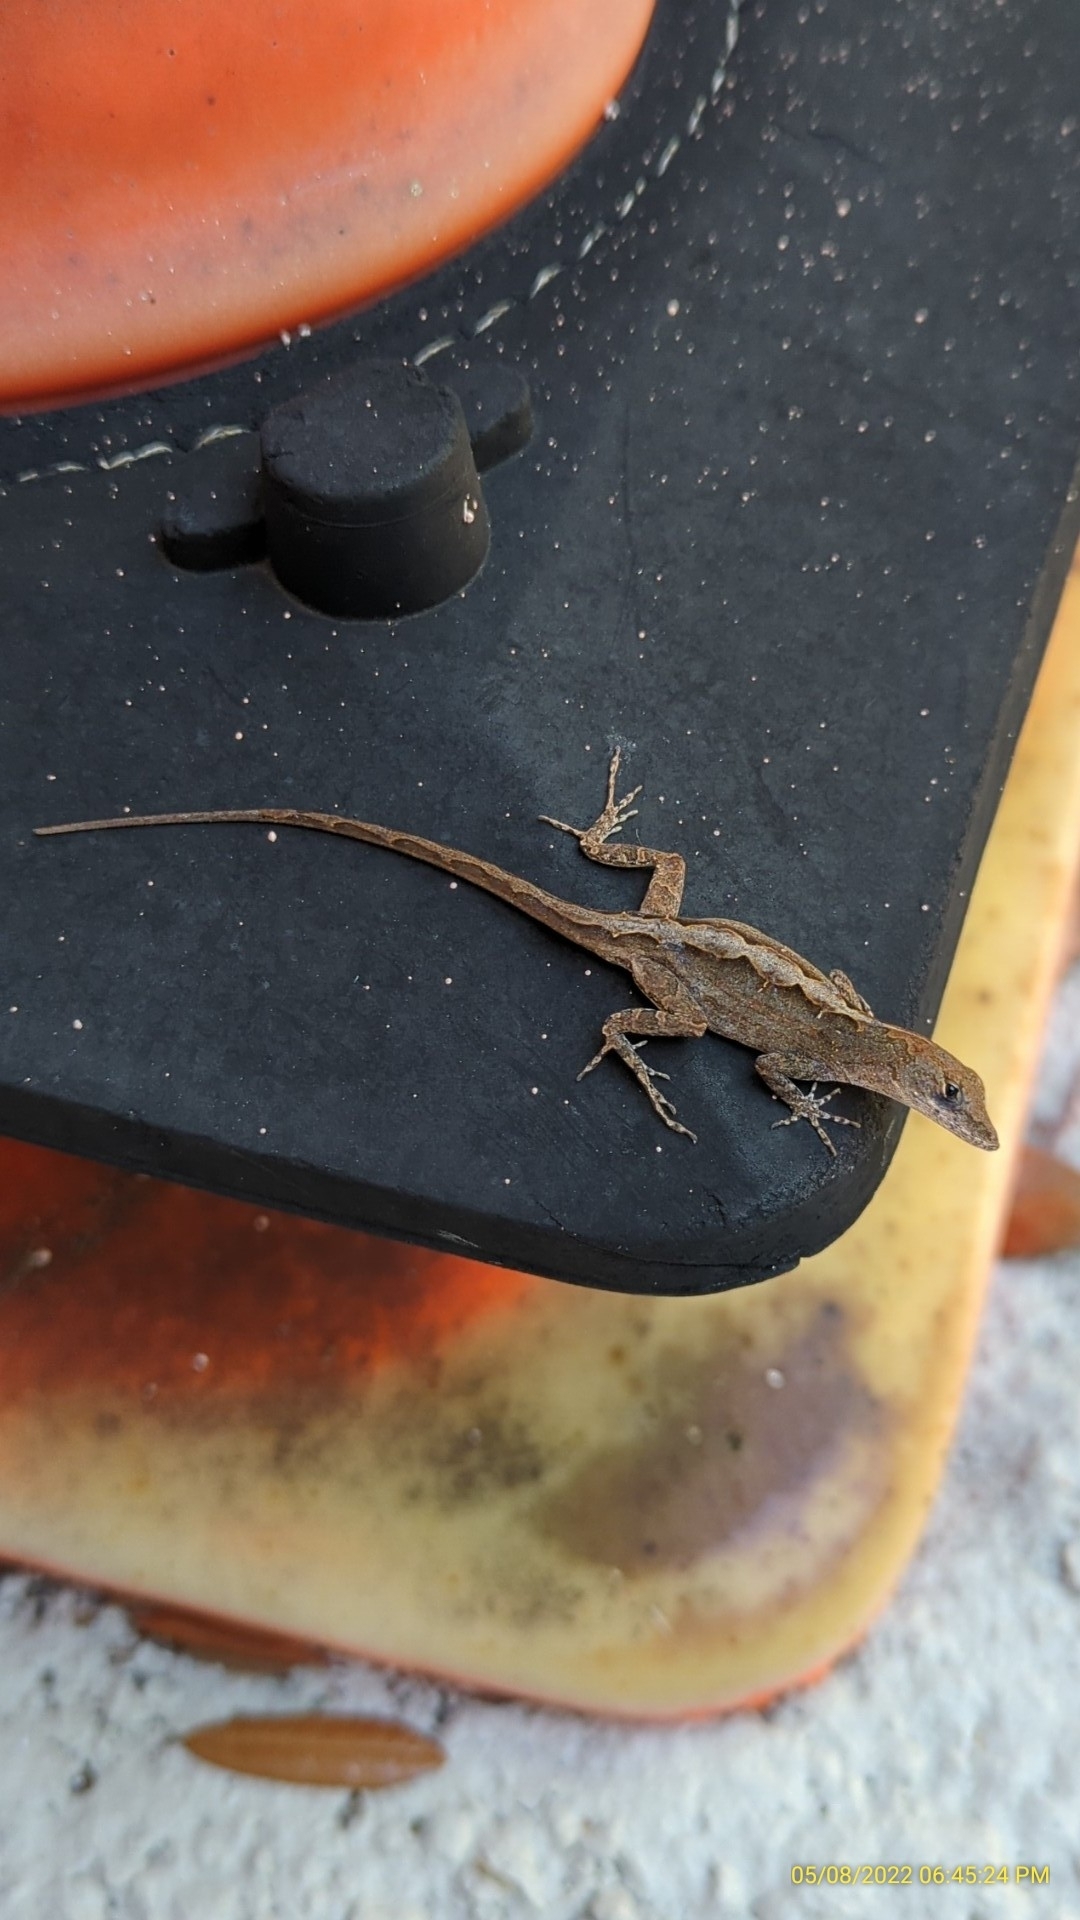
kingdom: Animalia
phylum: Chordata
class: Squamata
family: Dactyloidae
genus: Anolis
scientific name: Anolis sagrei
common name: Brown anole
